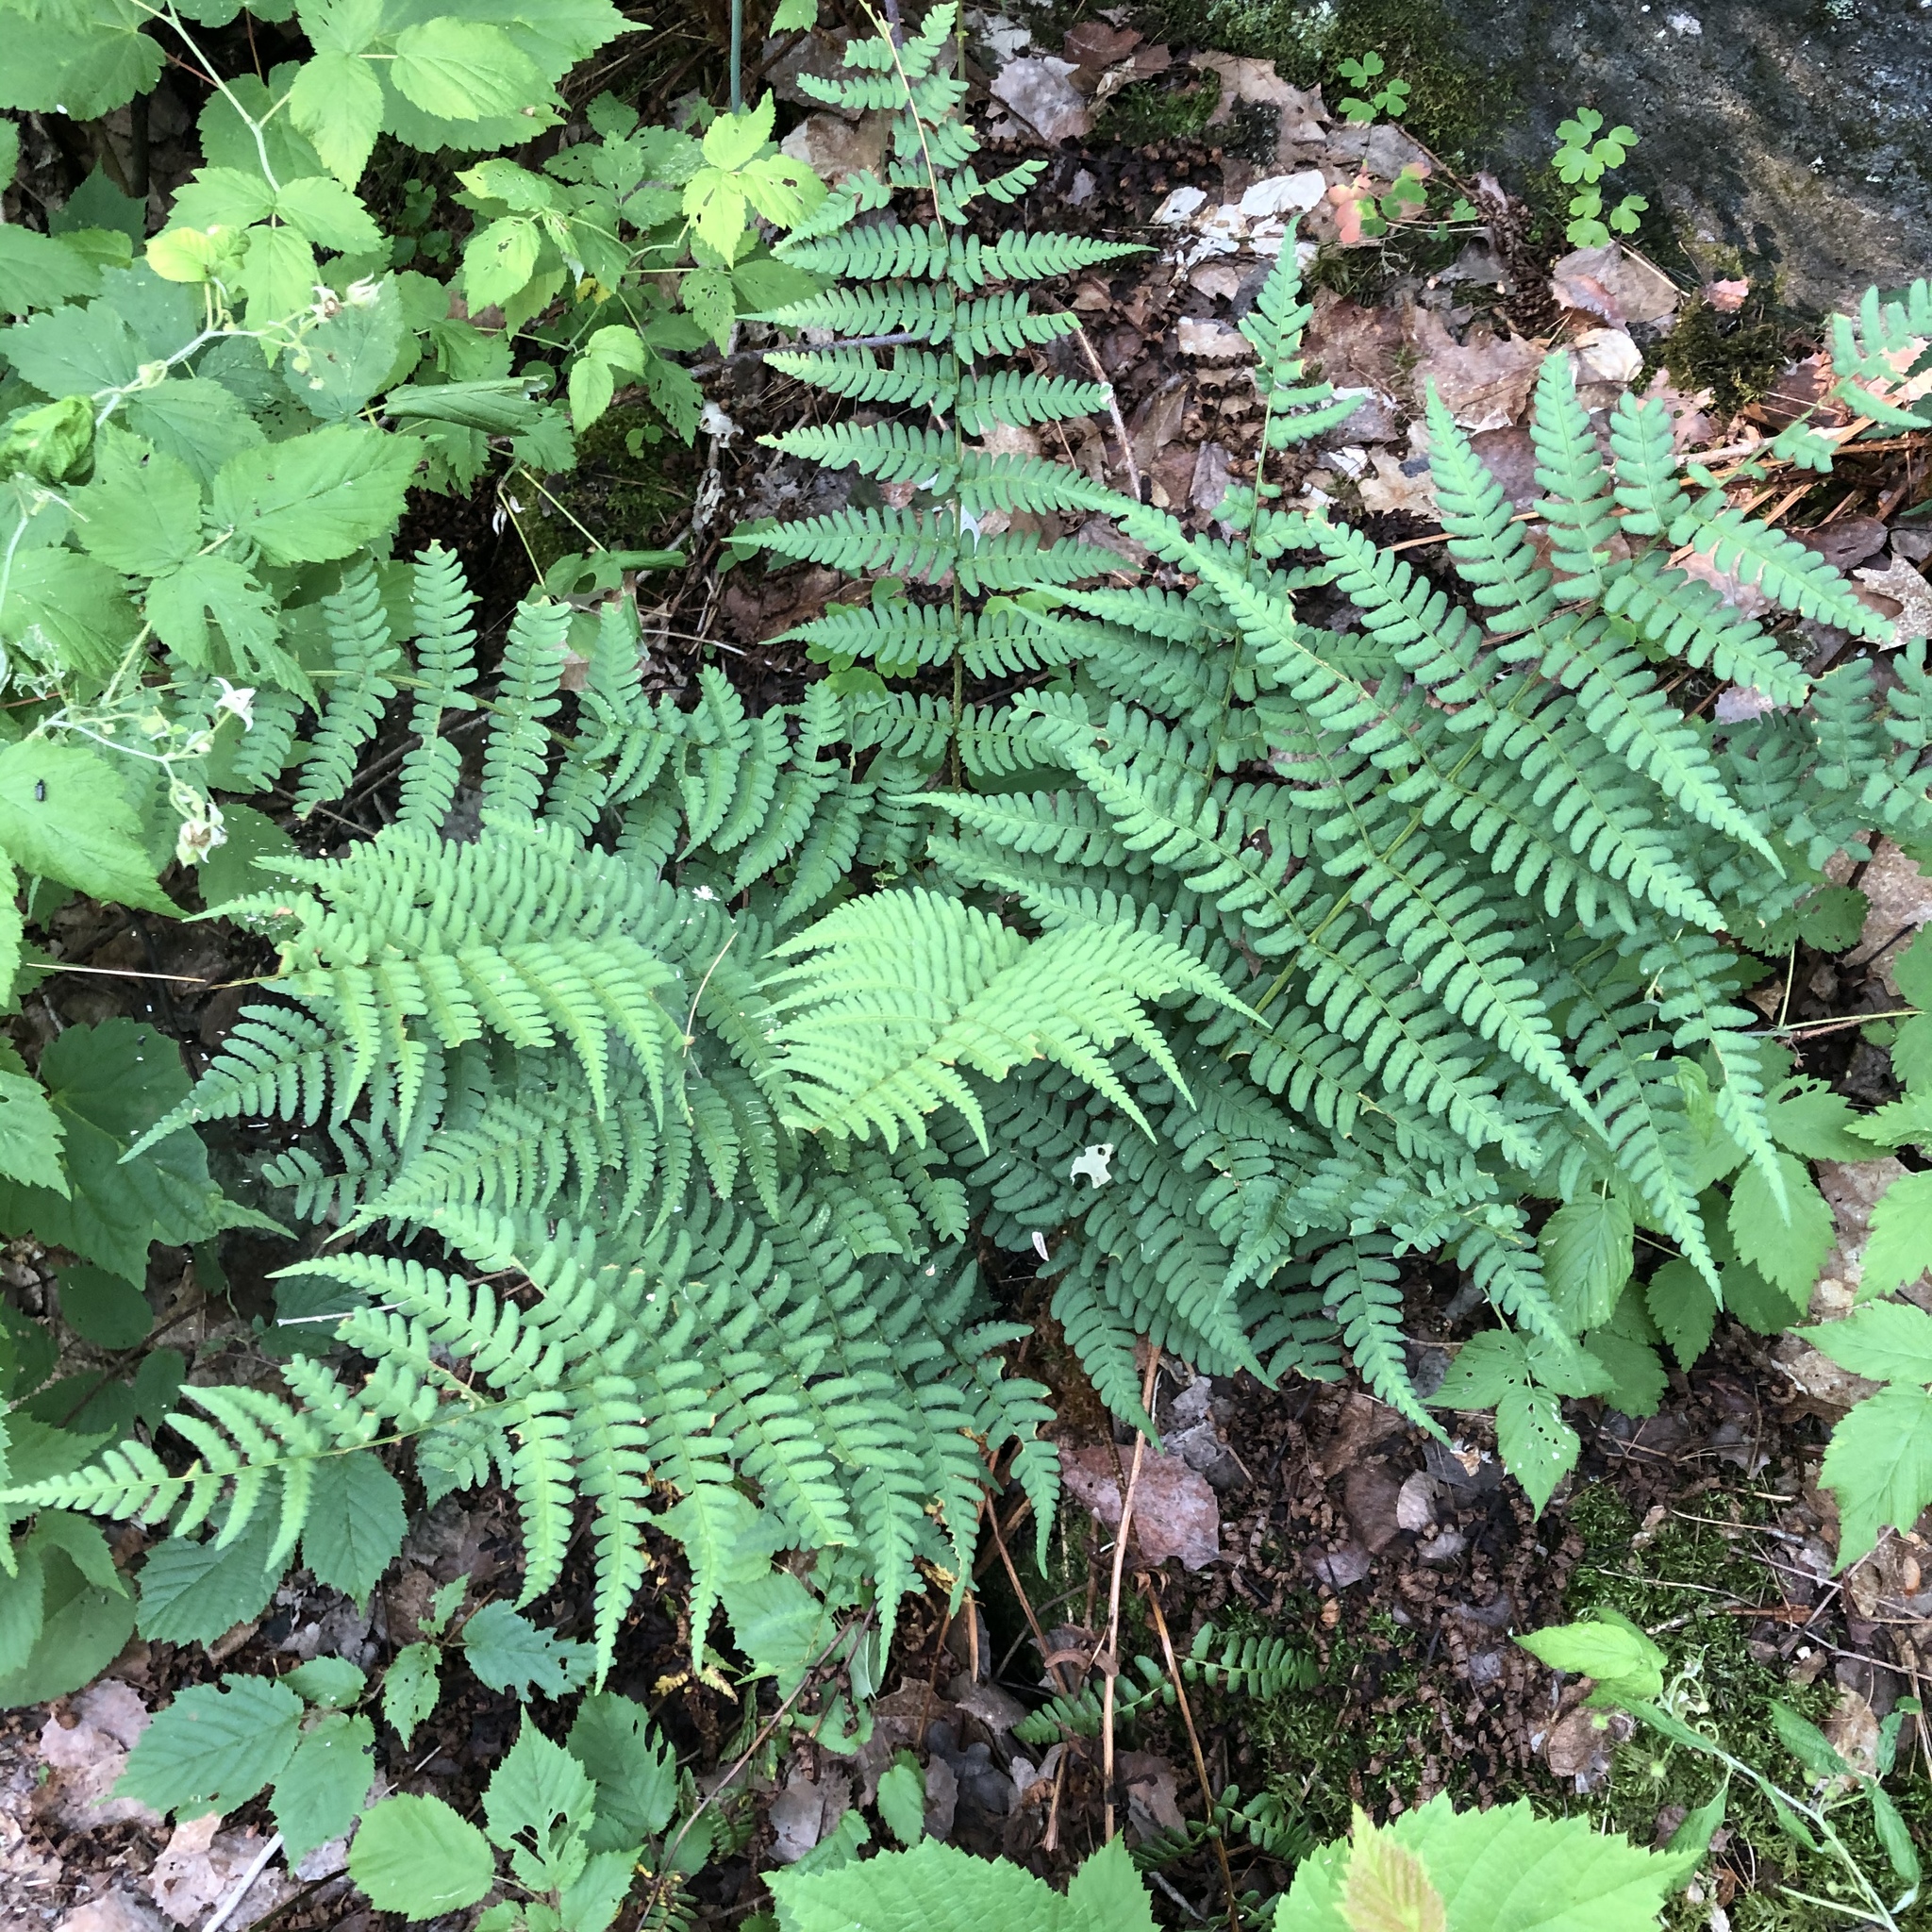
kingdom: Plantae
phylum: Tracheophyta
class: Polypodiopsida
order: Polypodiales
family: Dryopteridaceae
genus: Dryopteris
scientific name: Dryopteris marginalis
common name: Marginal wood fern
